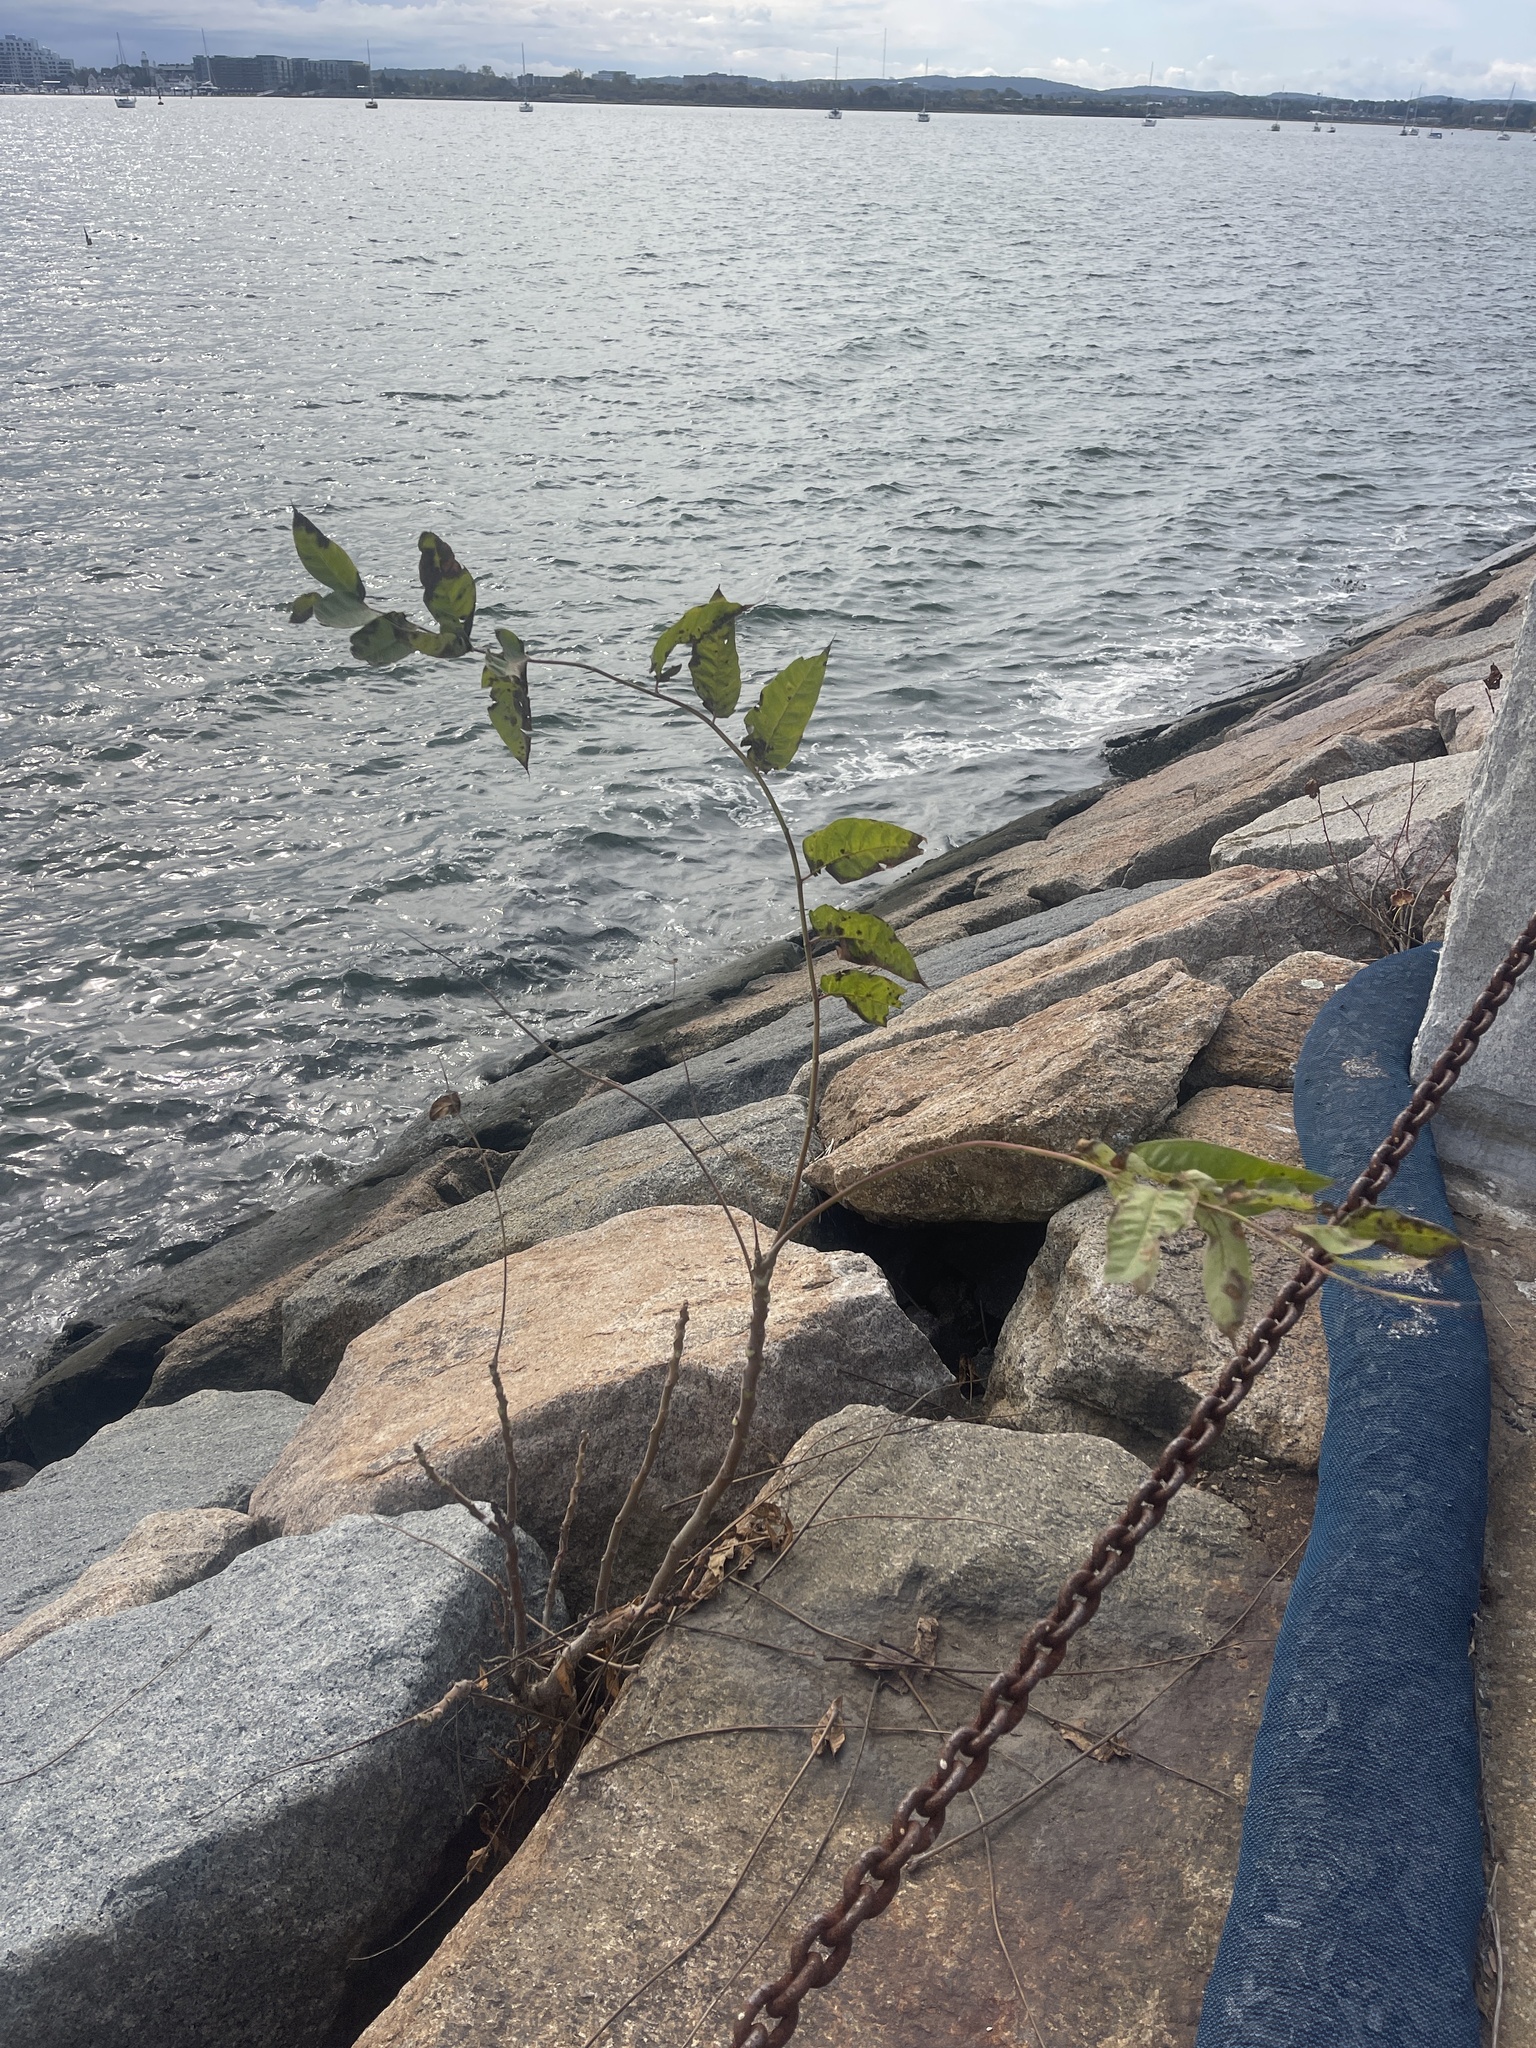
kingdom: Plantae
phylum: Tracheophyta
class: Magnoliopsida
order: Sapindales
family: Simaroubaceae
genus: Ailanthus
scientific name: Ailanthus altissima
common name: Tree-of-heaven
